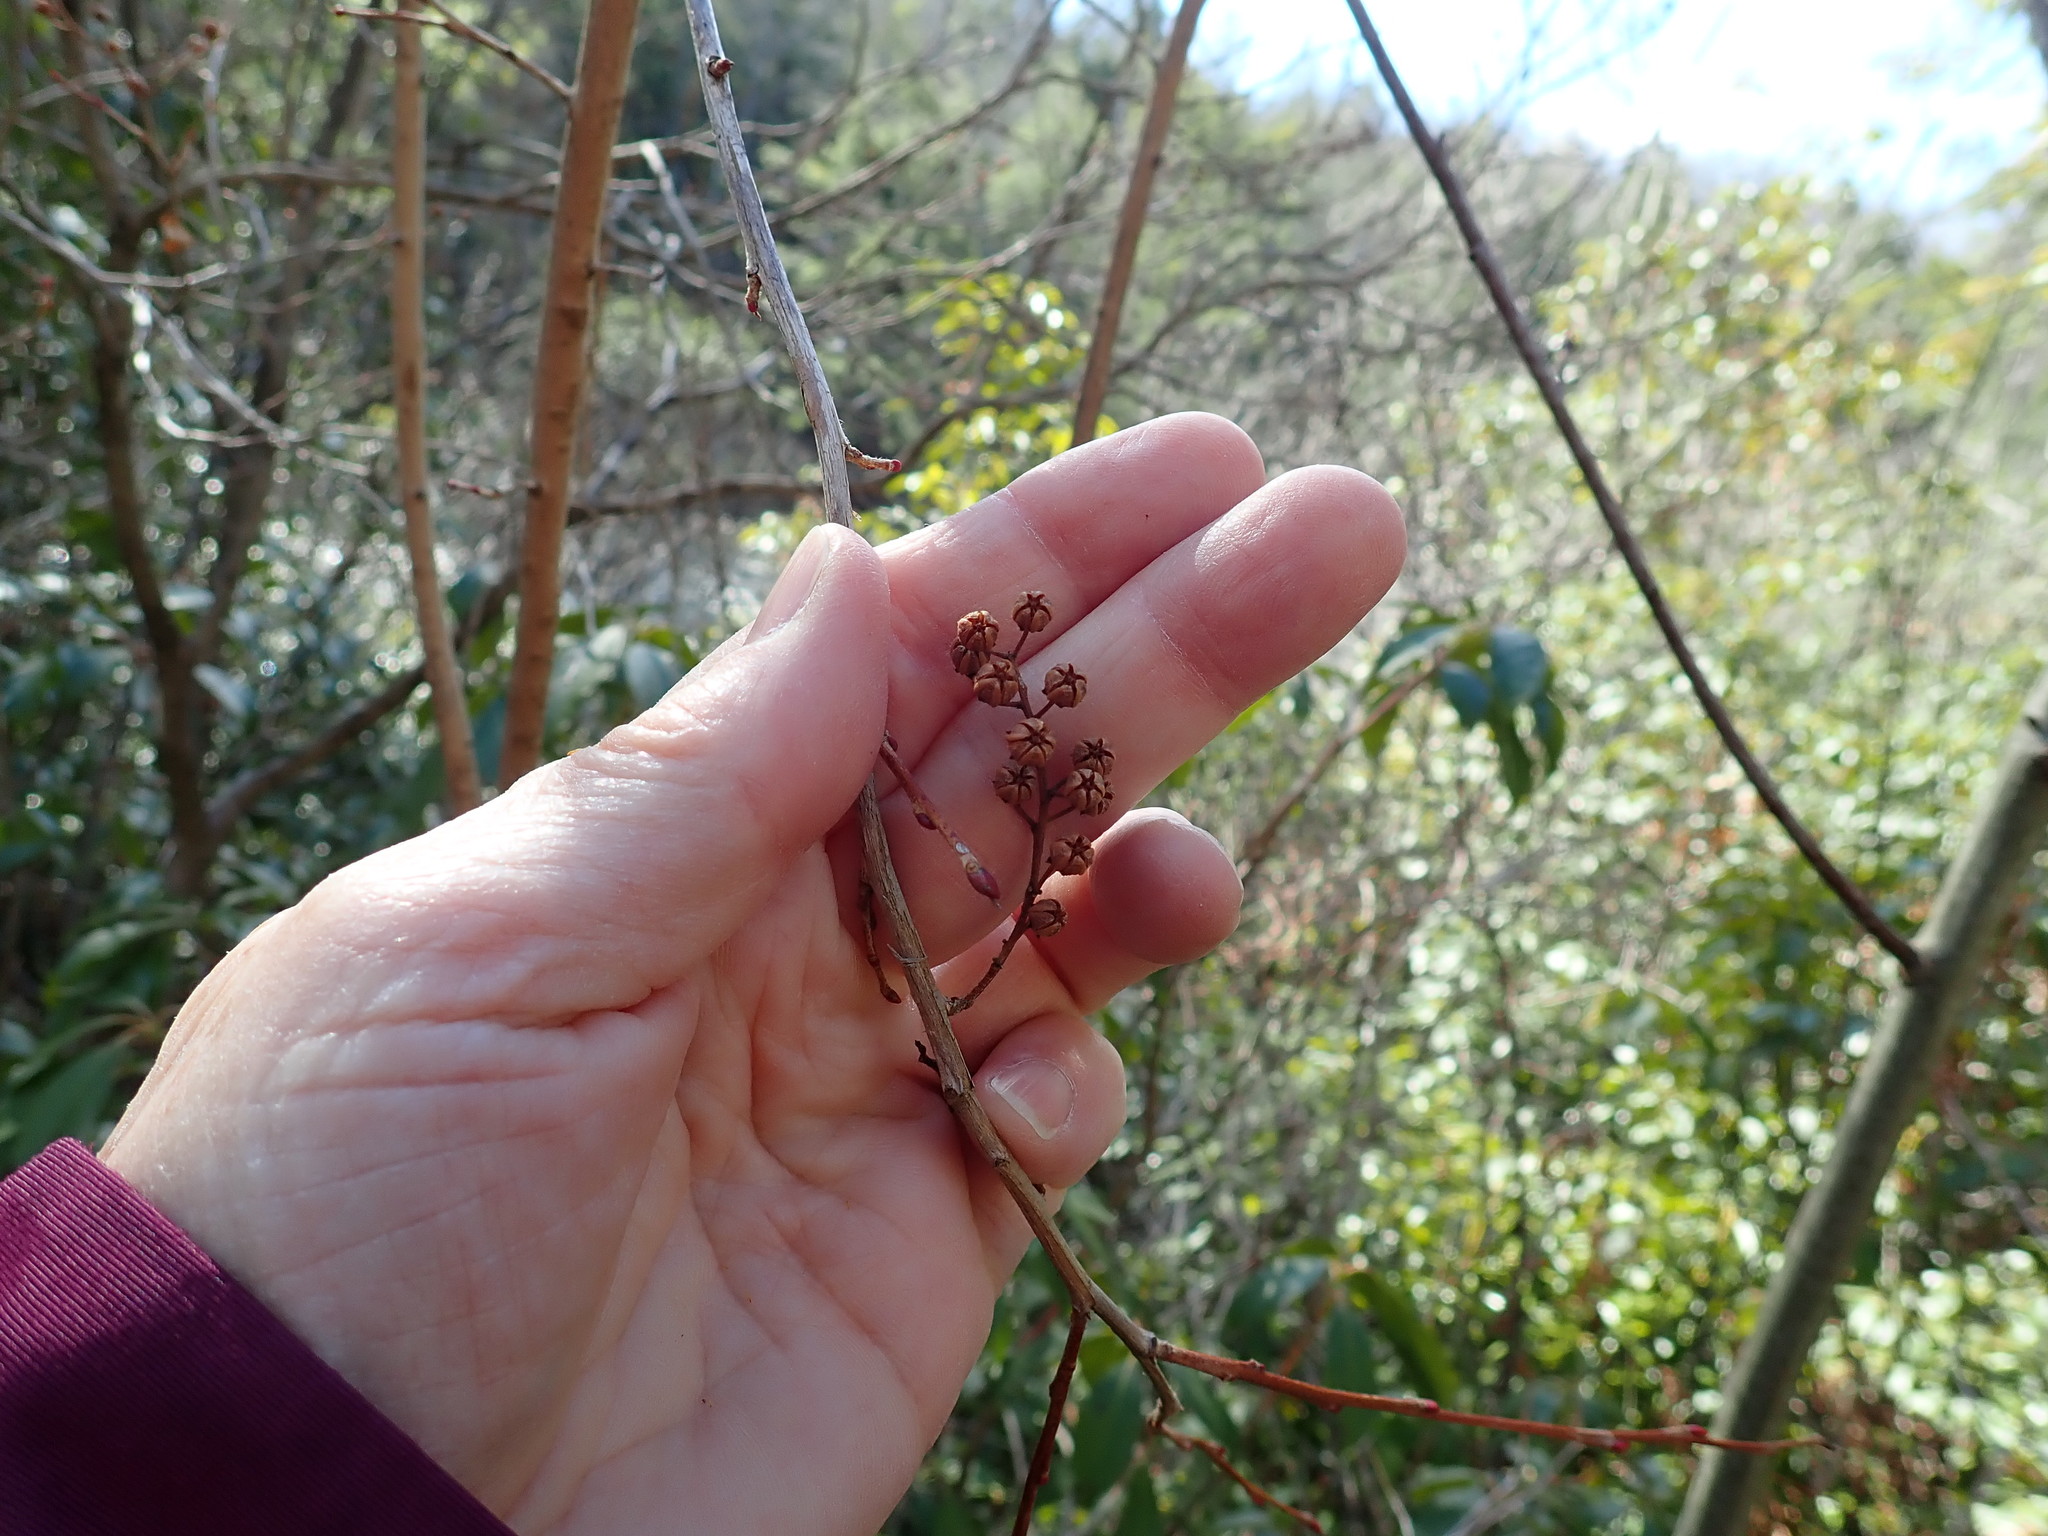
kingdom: Plantae
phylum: Tracheophyta
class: Magnoliopsida
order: Ericales
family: Ericaceae
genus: Lyonia
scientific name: Lyonia ligustrina
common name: Maleberry
